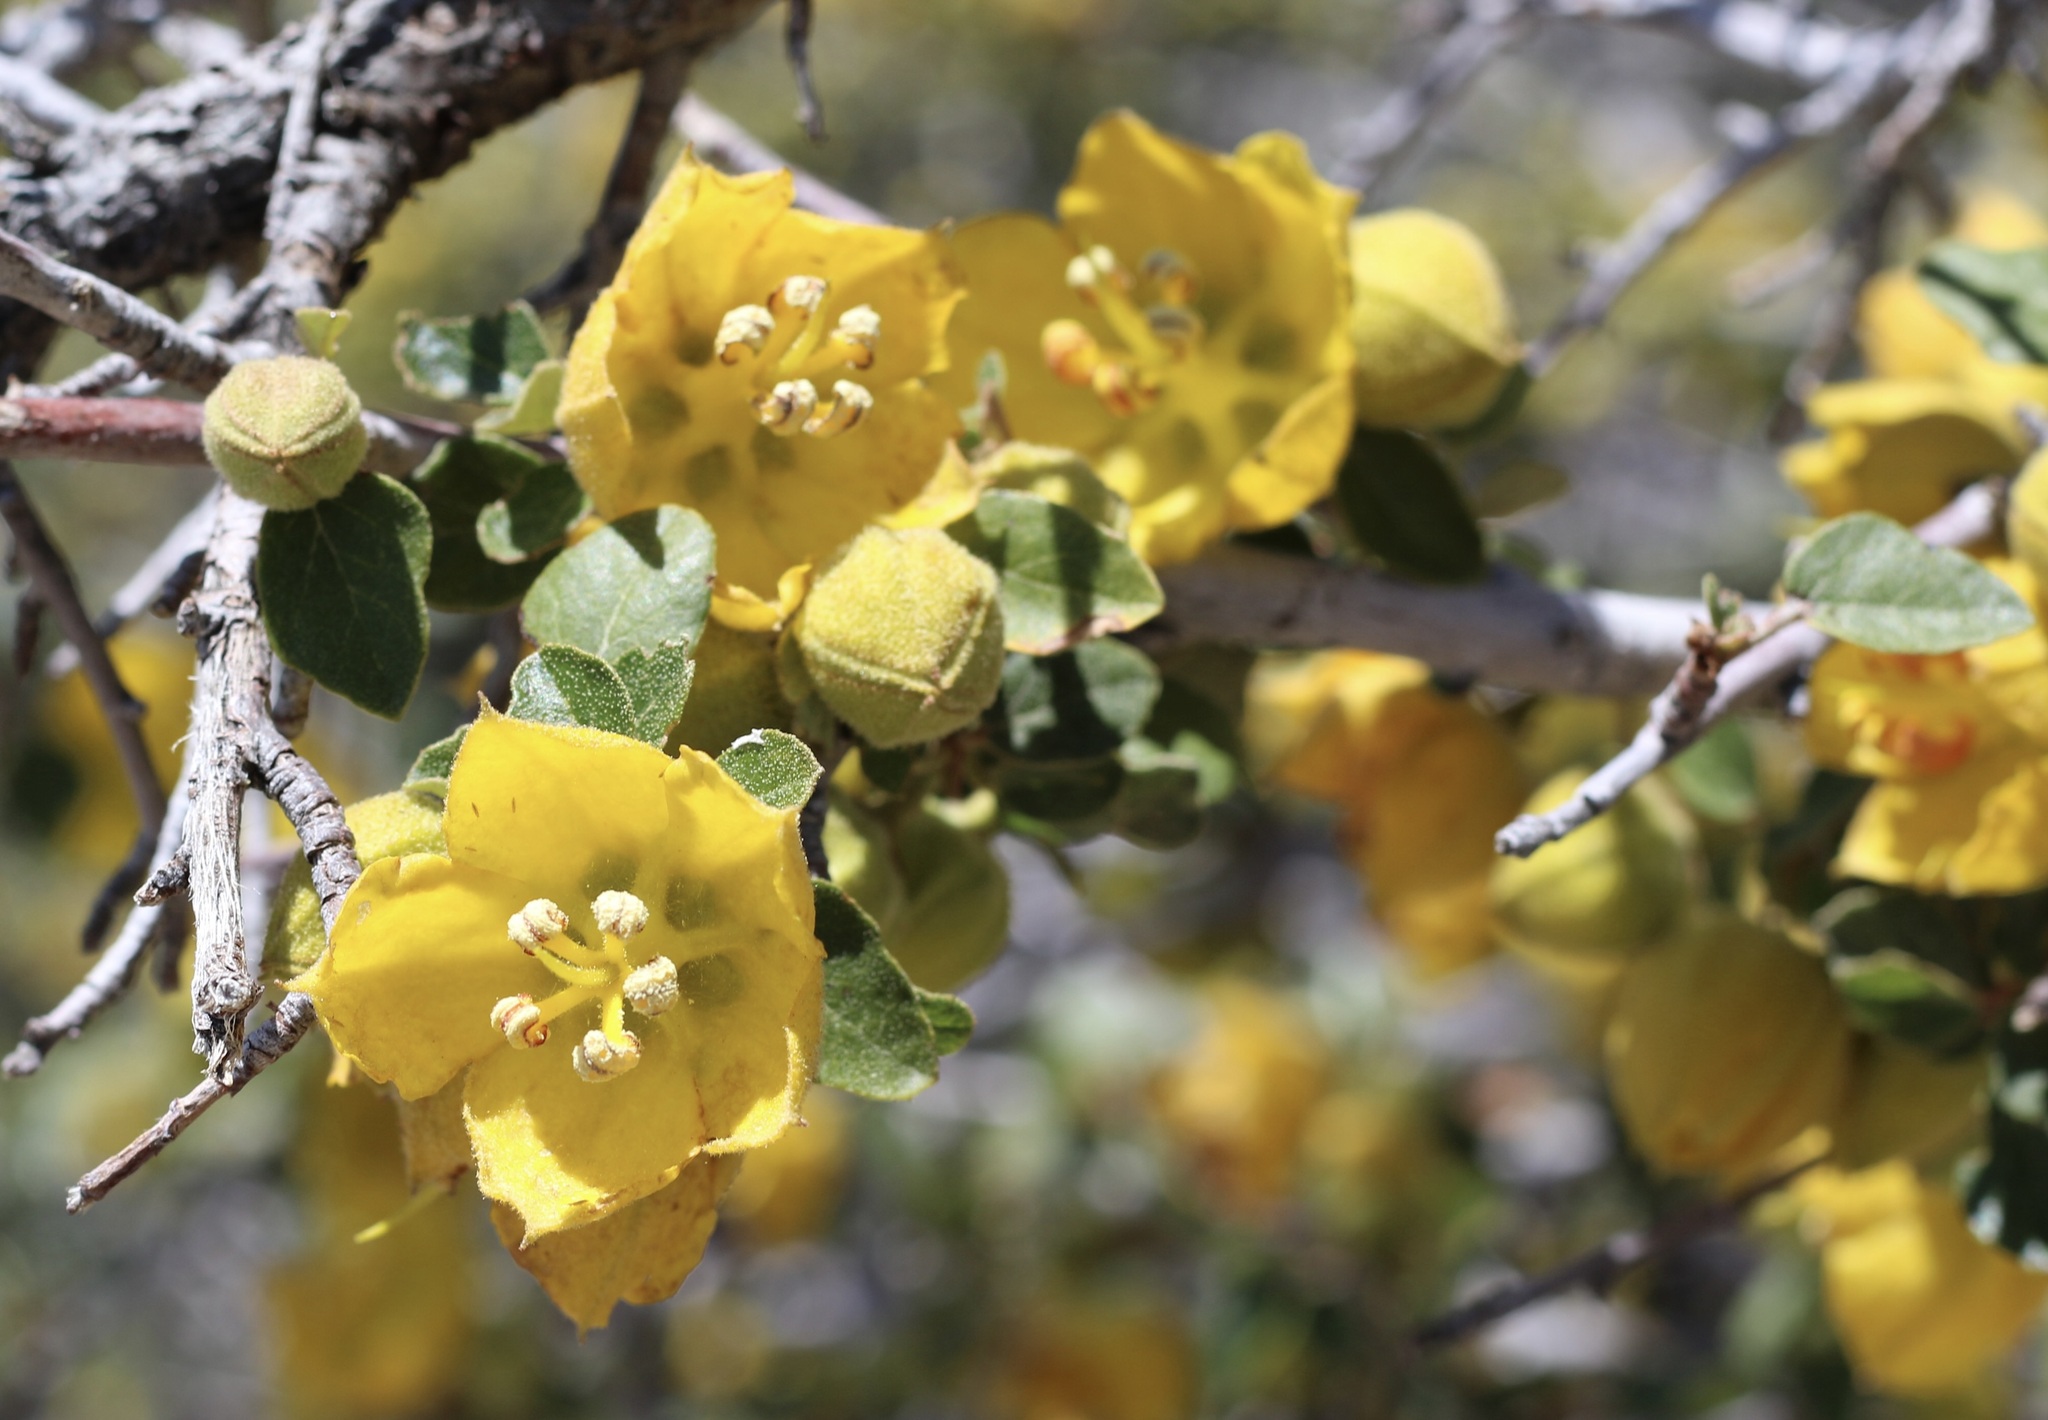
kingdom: Plantae
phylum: Tracheophyta
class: Magnoliopsida
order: Malvales
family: Malvaceae
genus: Fremontodendron
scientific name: Fremontodendron californicum
